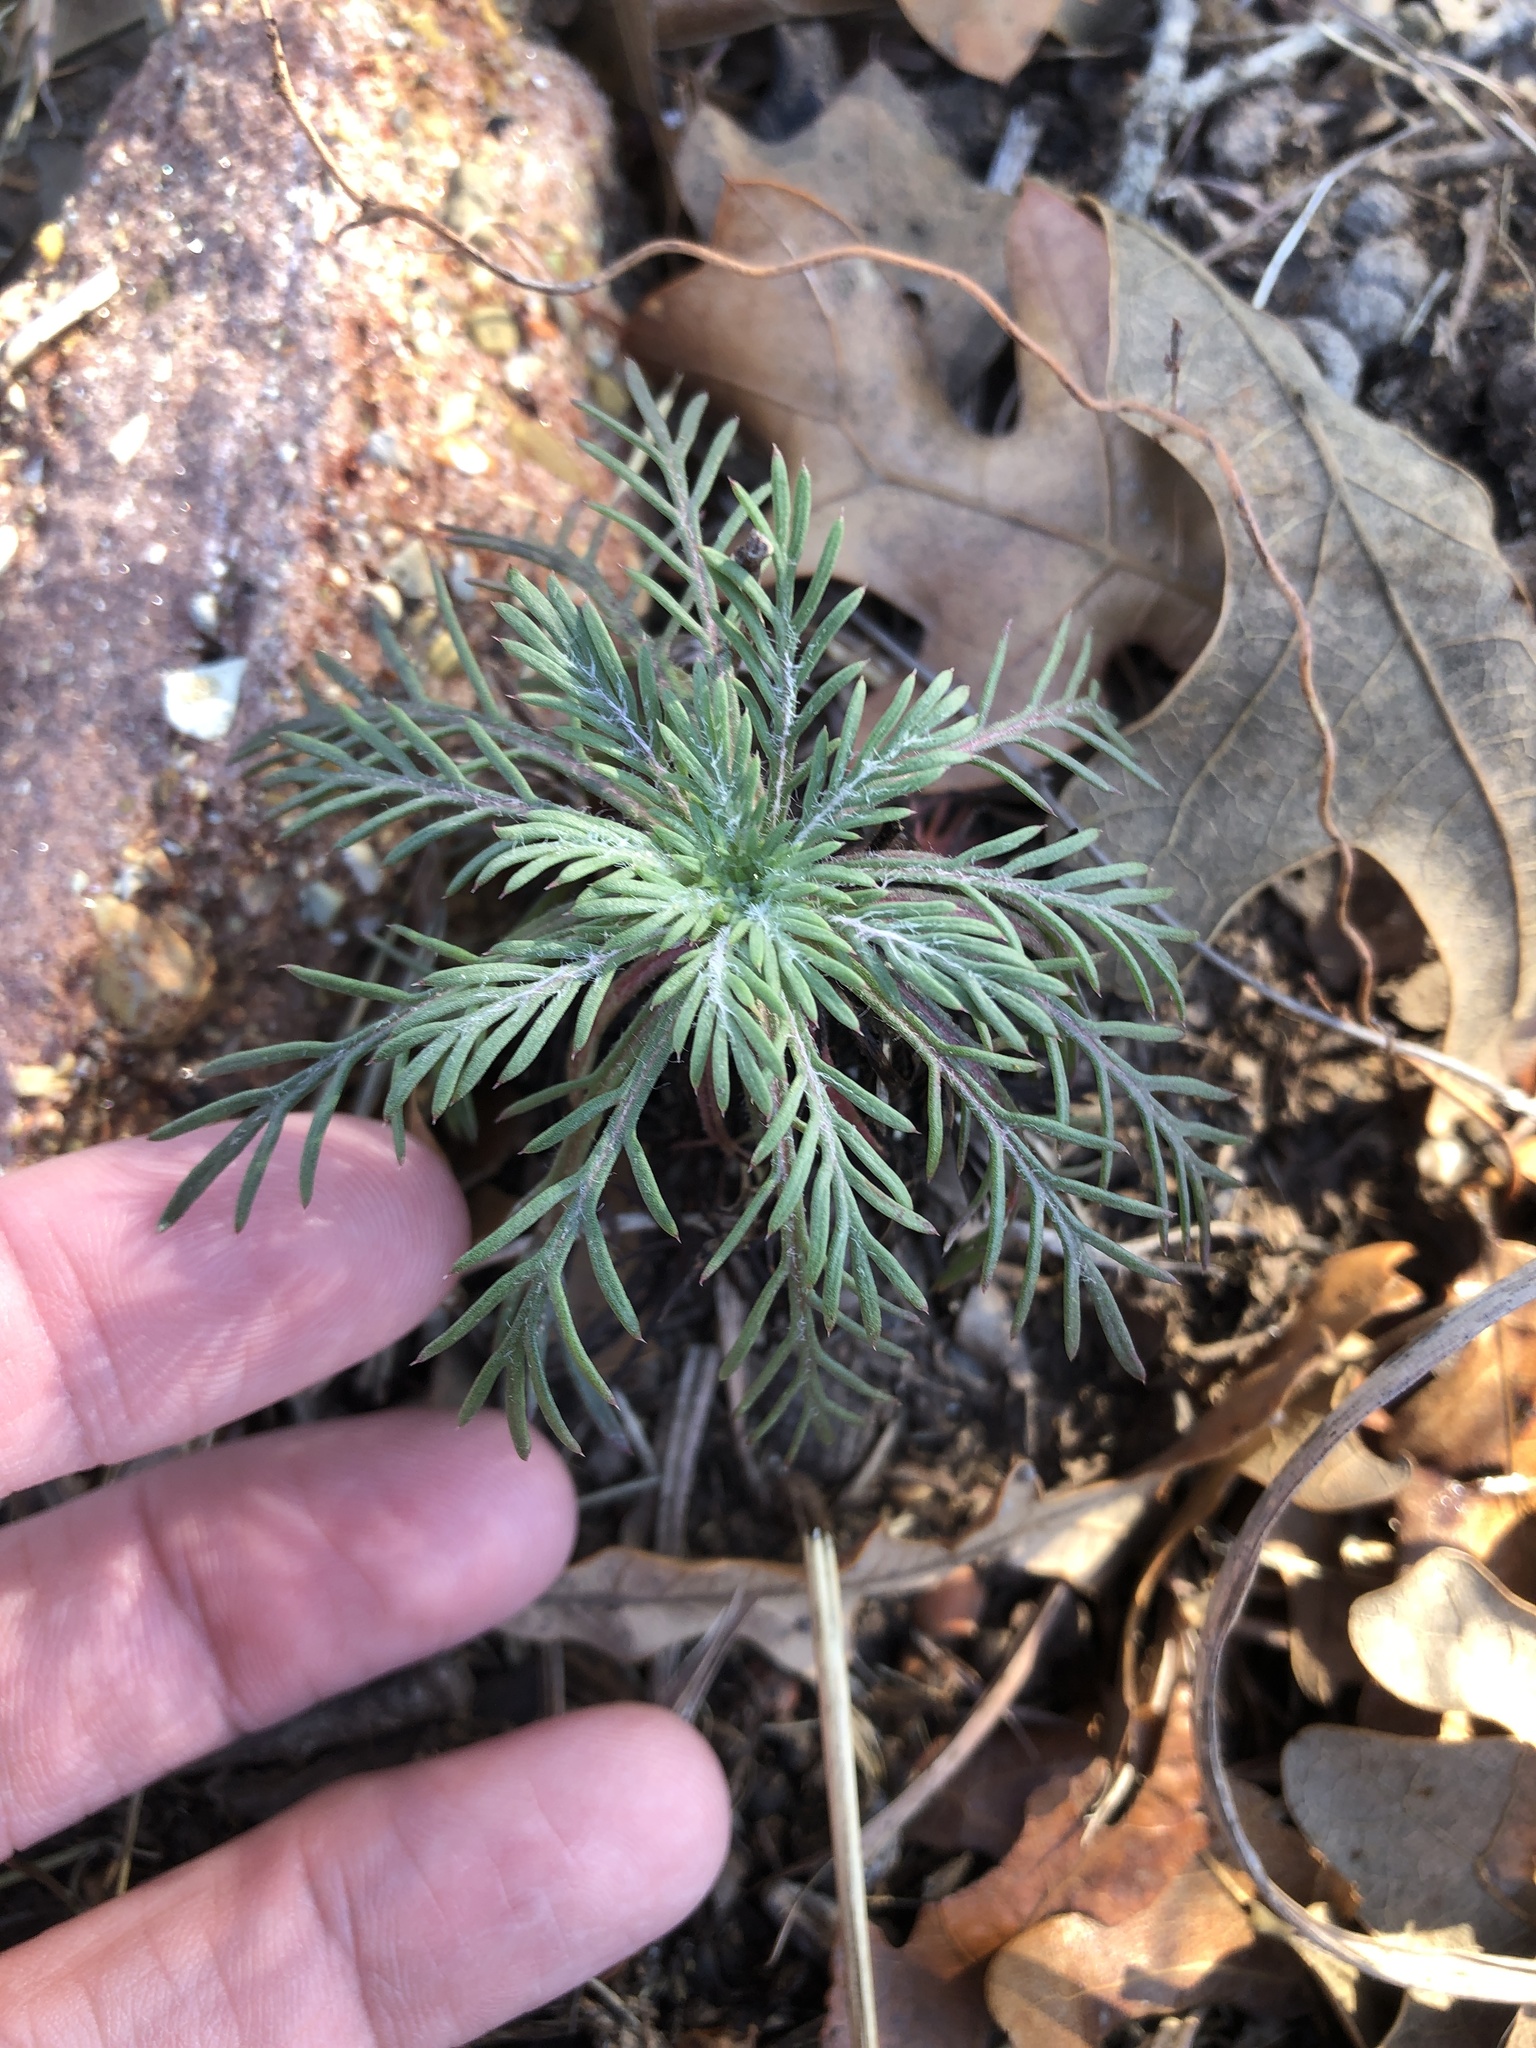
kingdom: Plantae
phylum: Tracheophyta
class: Magnoliopsida
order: Ericales
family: Polemoniaceae
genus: Ipomopsis
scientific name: Ipomopsis rubra
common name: Skyrocket
